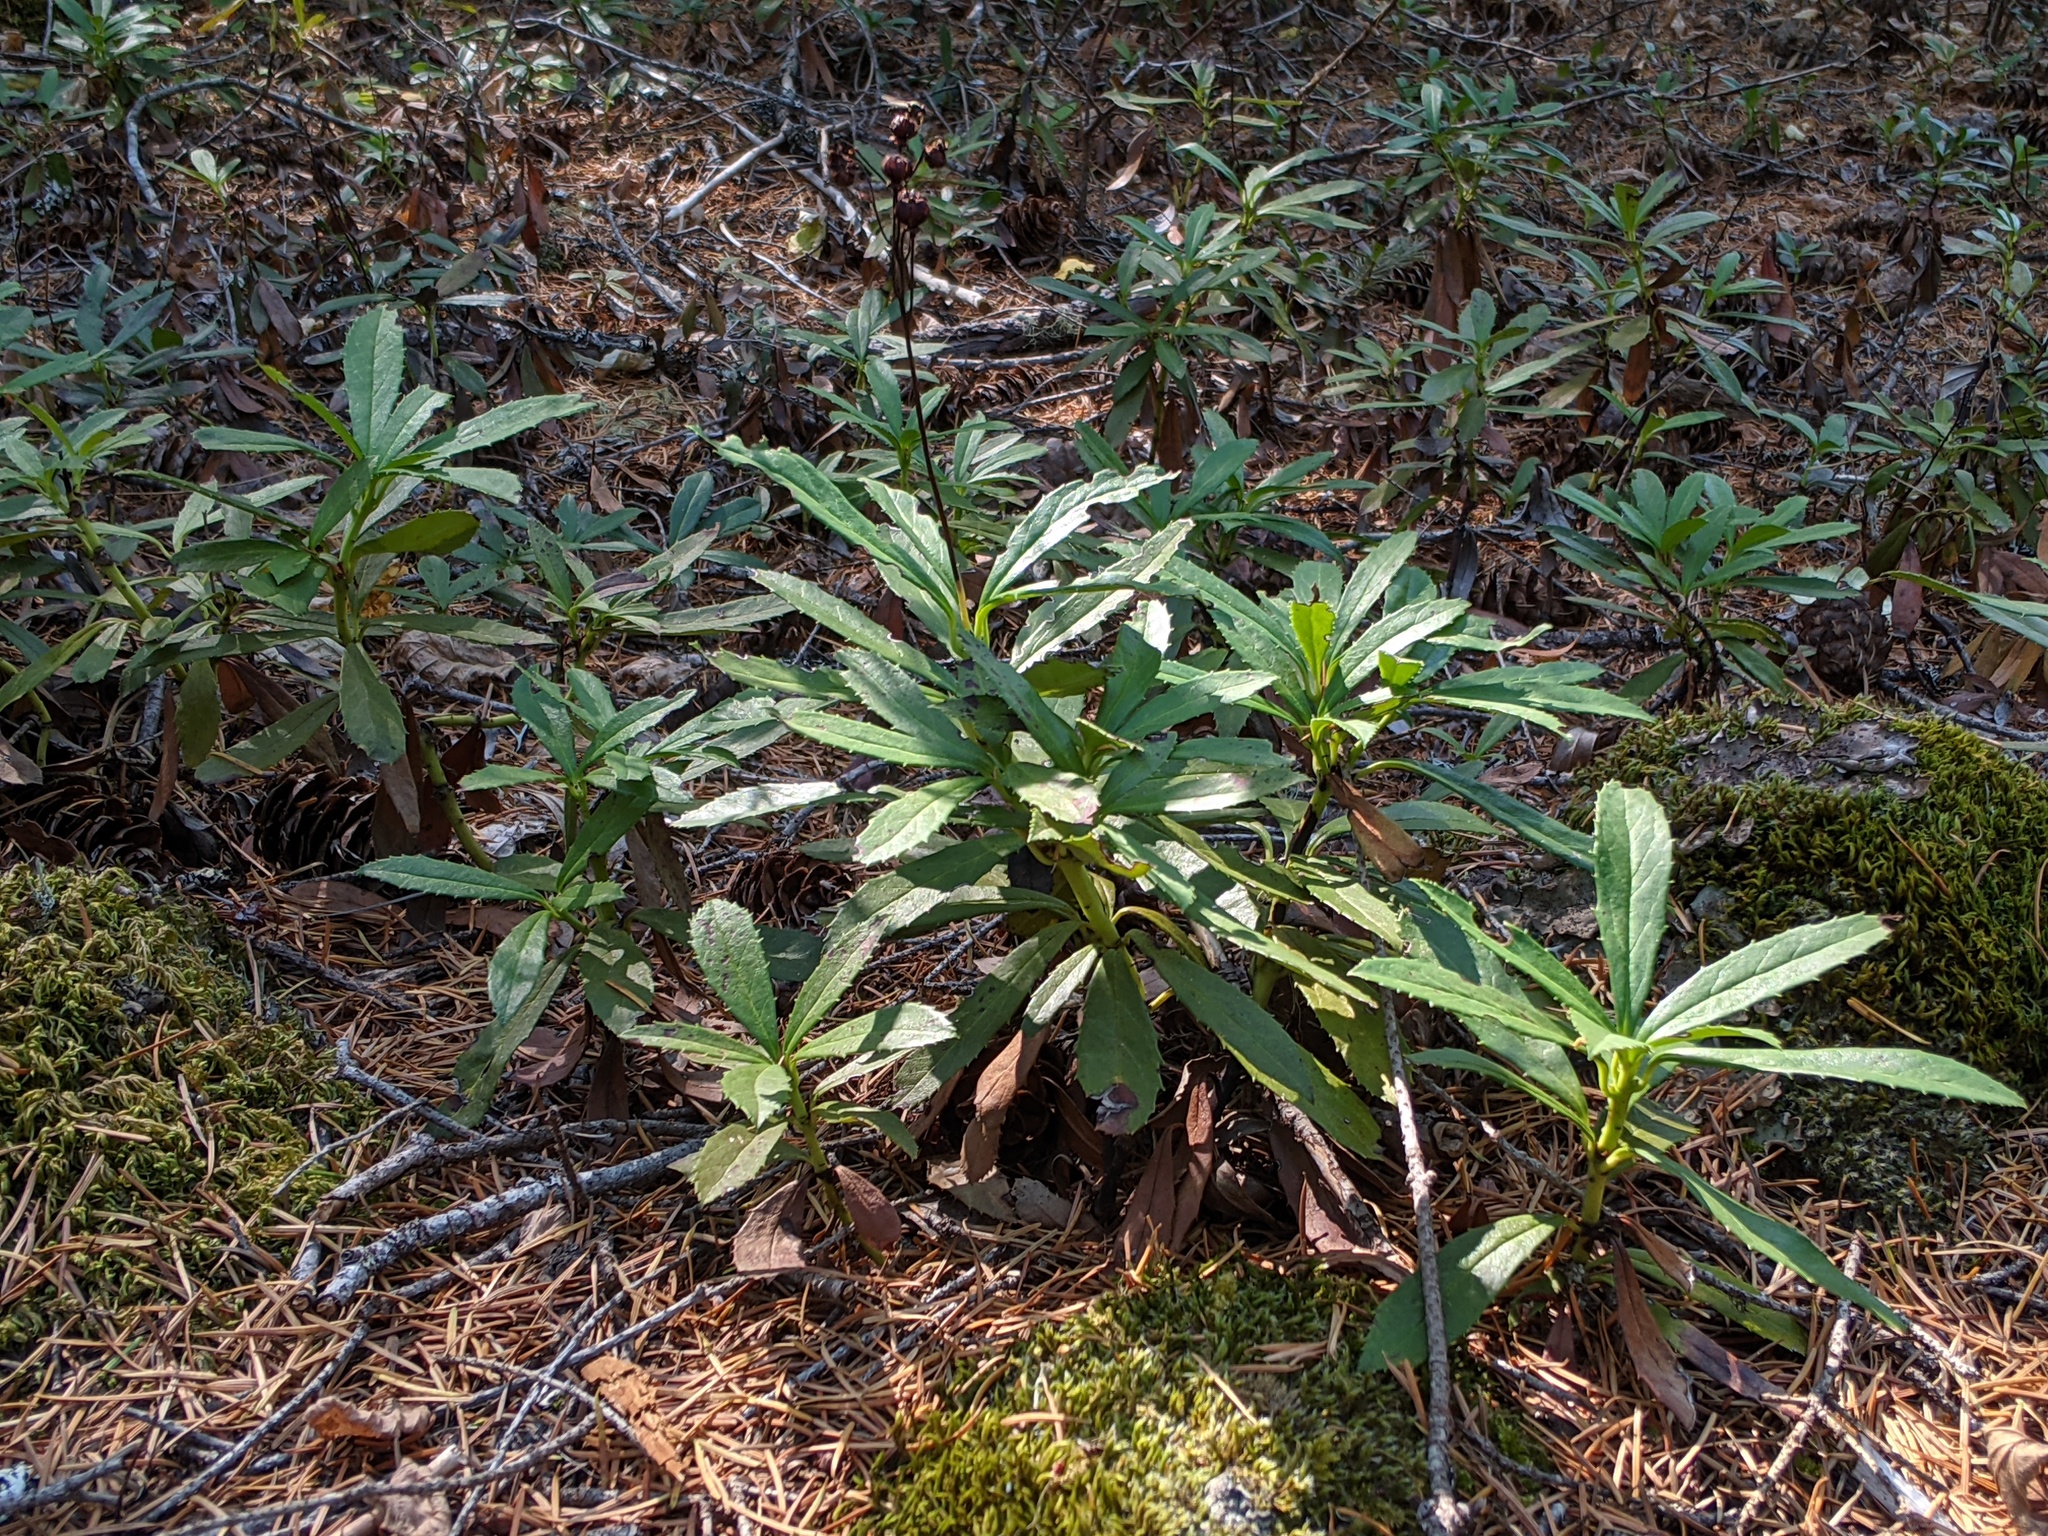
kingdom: Plantae
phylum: Tracheophyta
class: Magnoliopsida
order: Ericales
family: Ericaceae
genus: Chimaphila
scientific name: Chimaphila umbellata
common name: Pipsissewa
